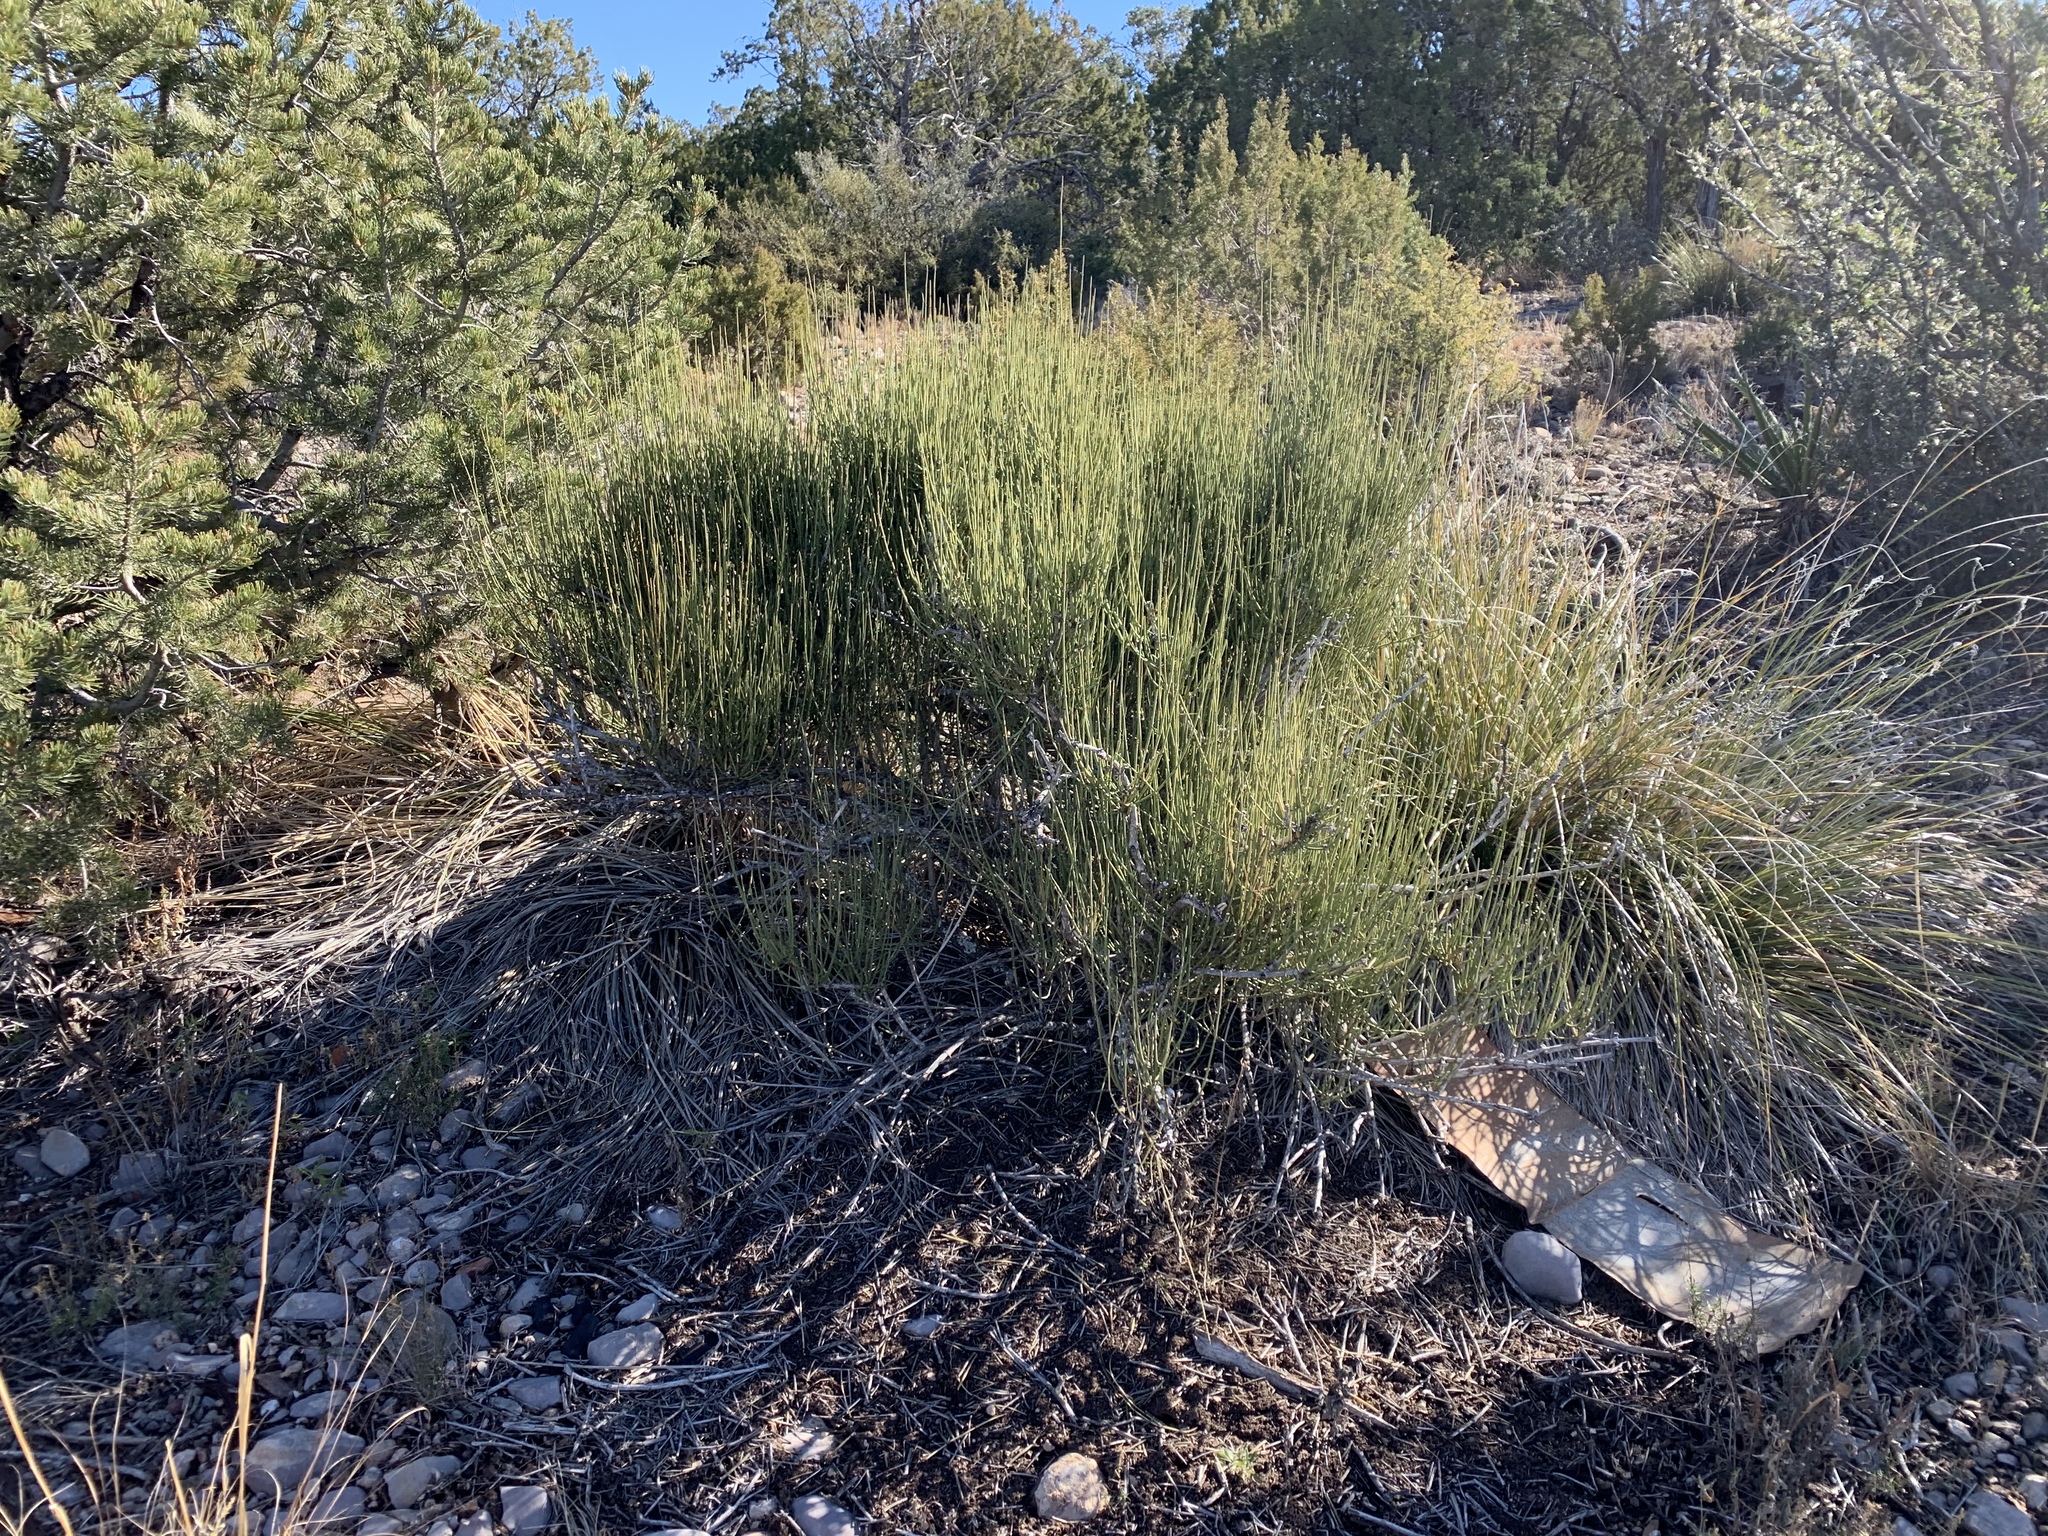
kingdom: Plantae
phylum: Tracheophyta
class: Gnetopsida
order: Ephedrales
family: Ephedraceae
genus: Ephedra
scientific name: Ephedra viridis
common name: Green ephedra
